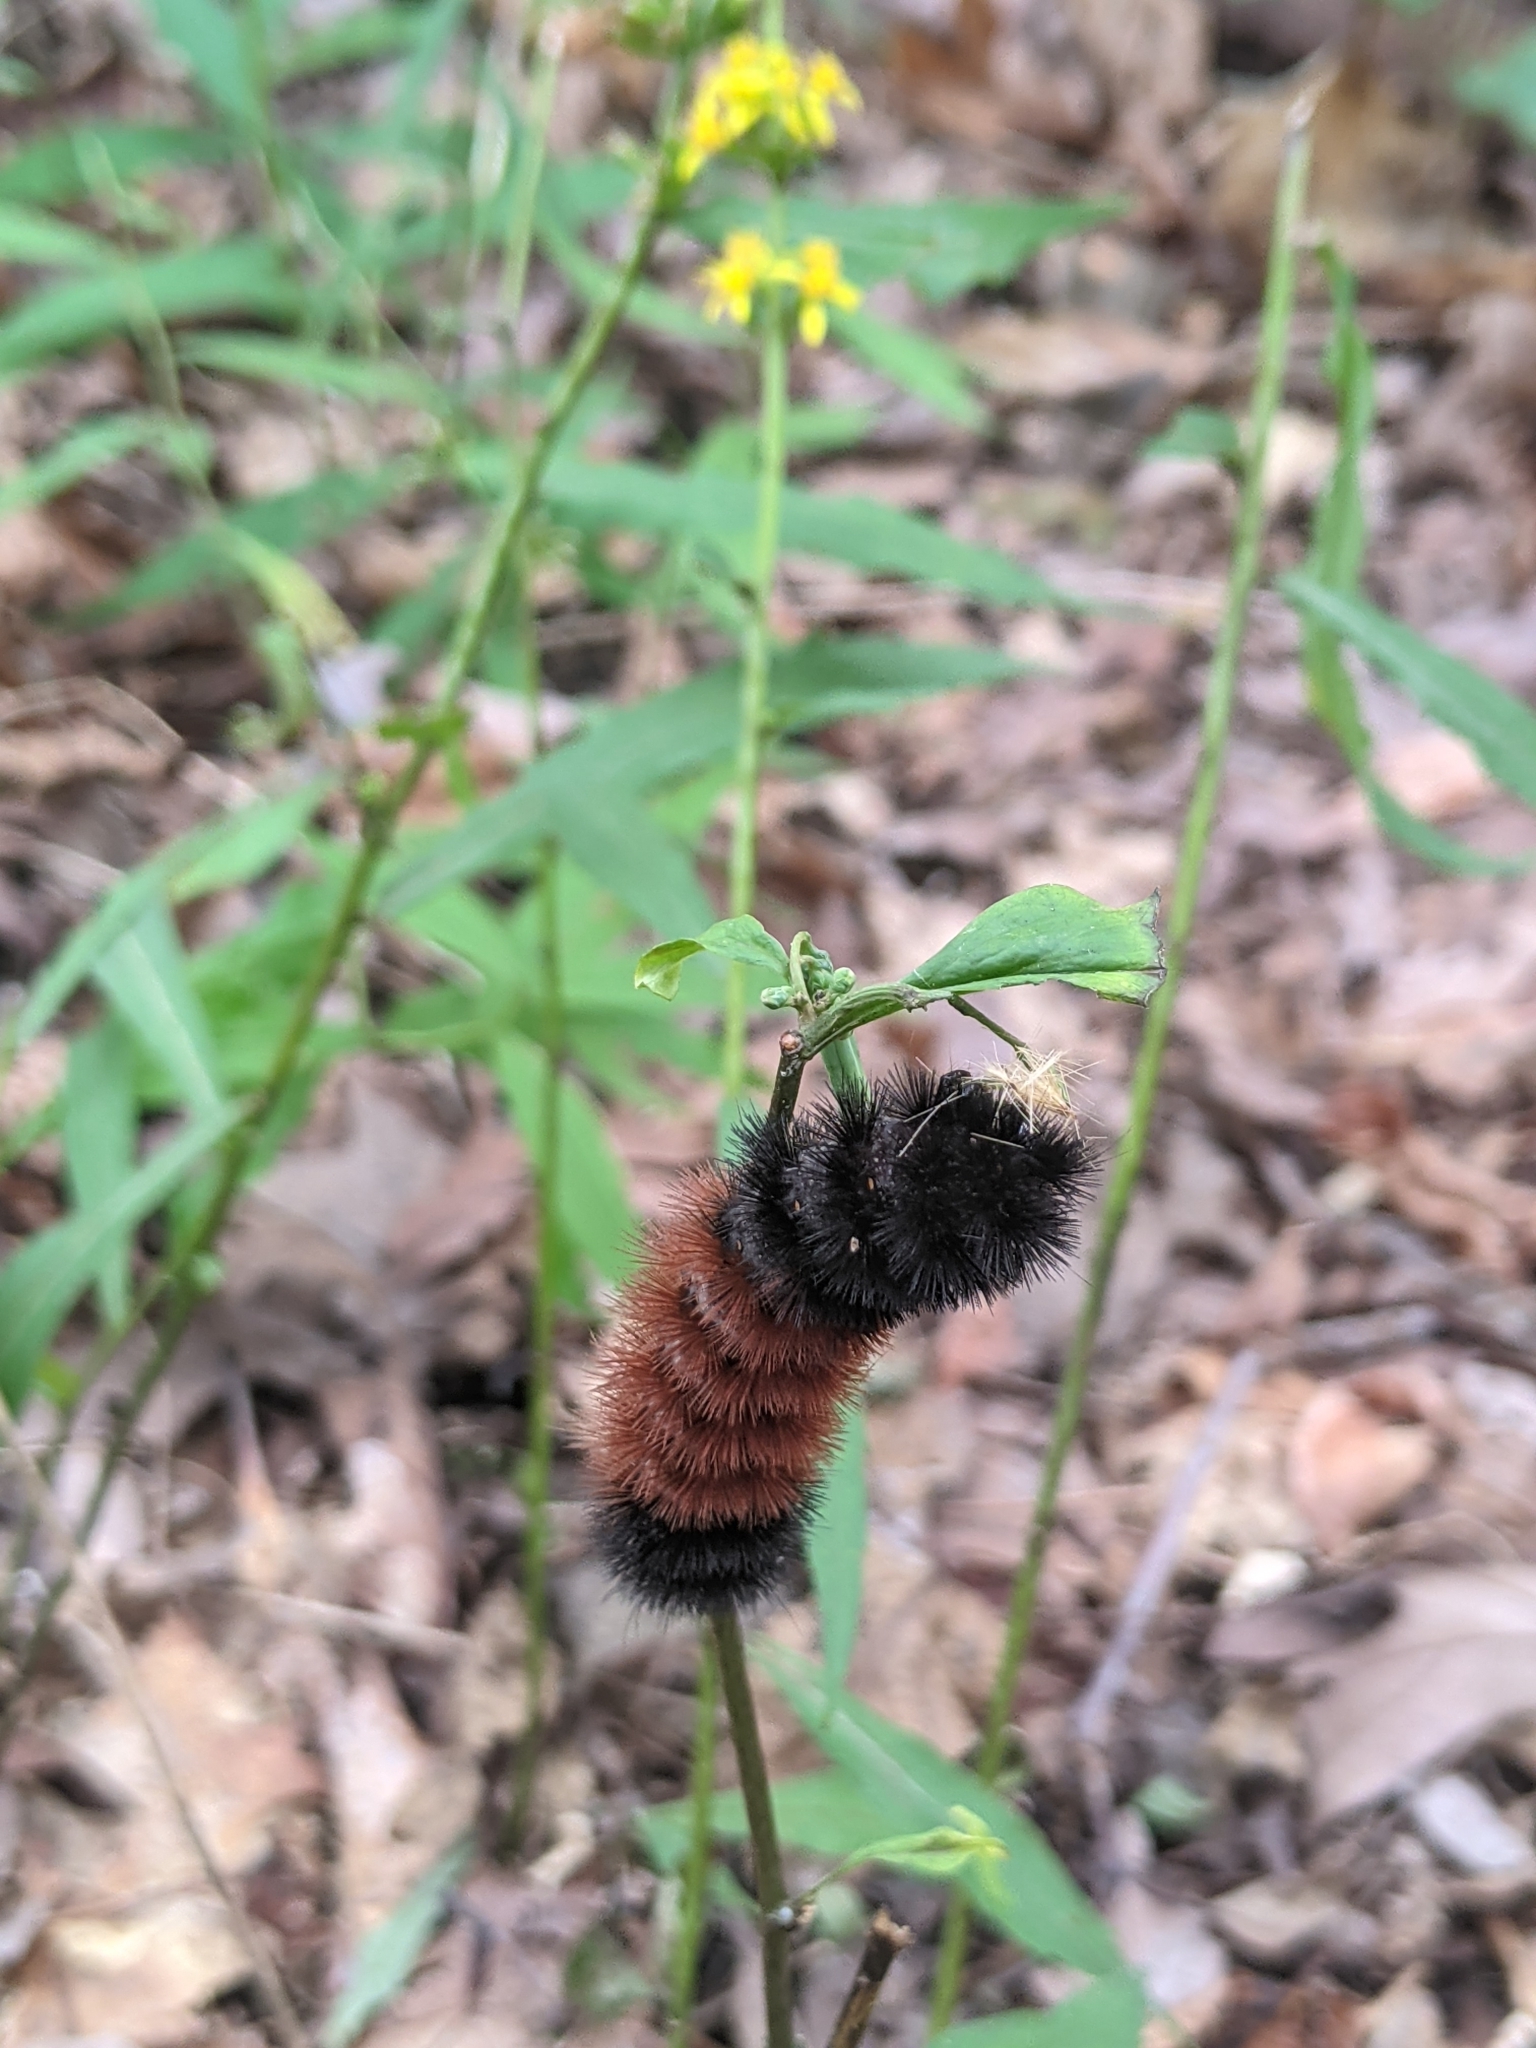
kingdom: Animalia
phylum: Arthropoda
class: Insecta
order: Lepidoptera
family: Erebidae
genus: Pyrrharctia
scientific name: Pyrrharctia isabella
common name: Isabella tiger moth
